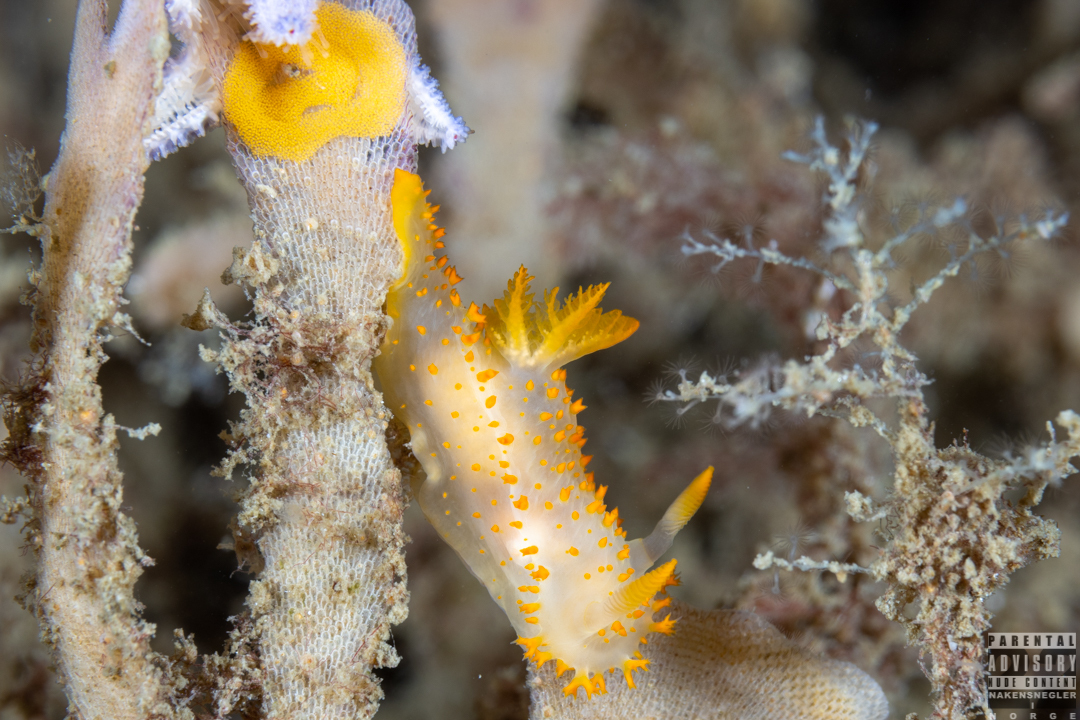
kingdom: Animalia
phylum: Mollusca
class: Gastropoda
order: Nudibranchia
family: Polyceridae
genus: Crimora
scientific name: Crimora papillata
